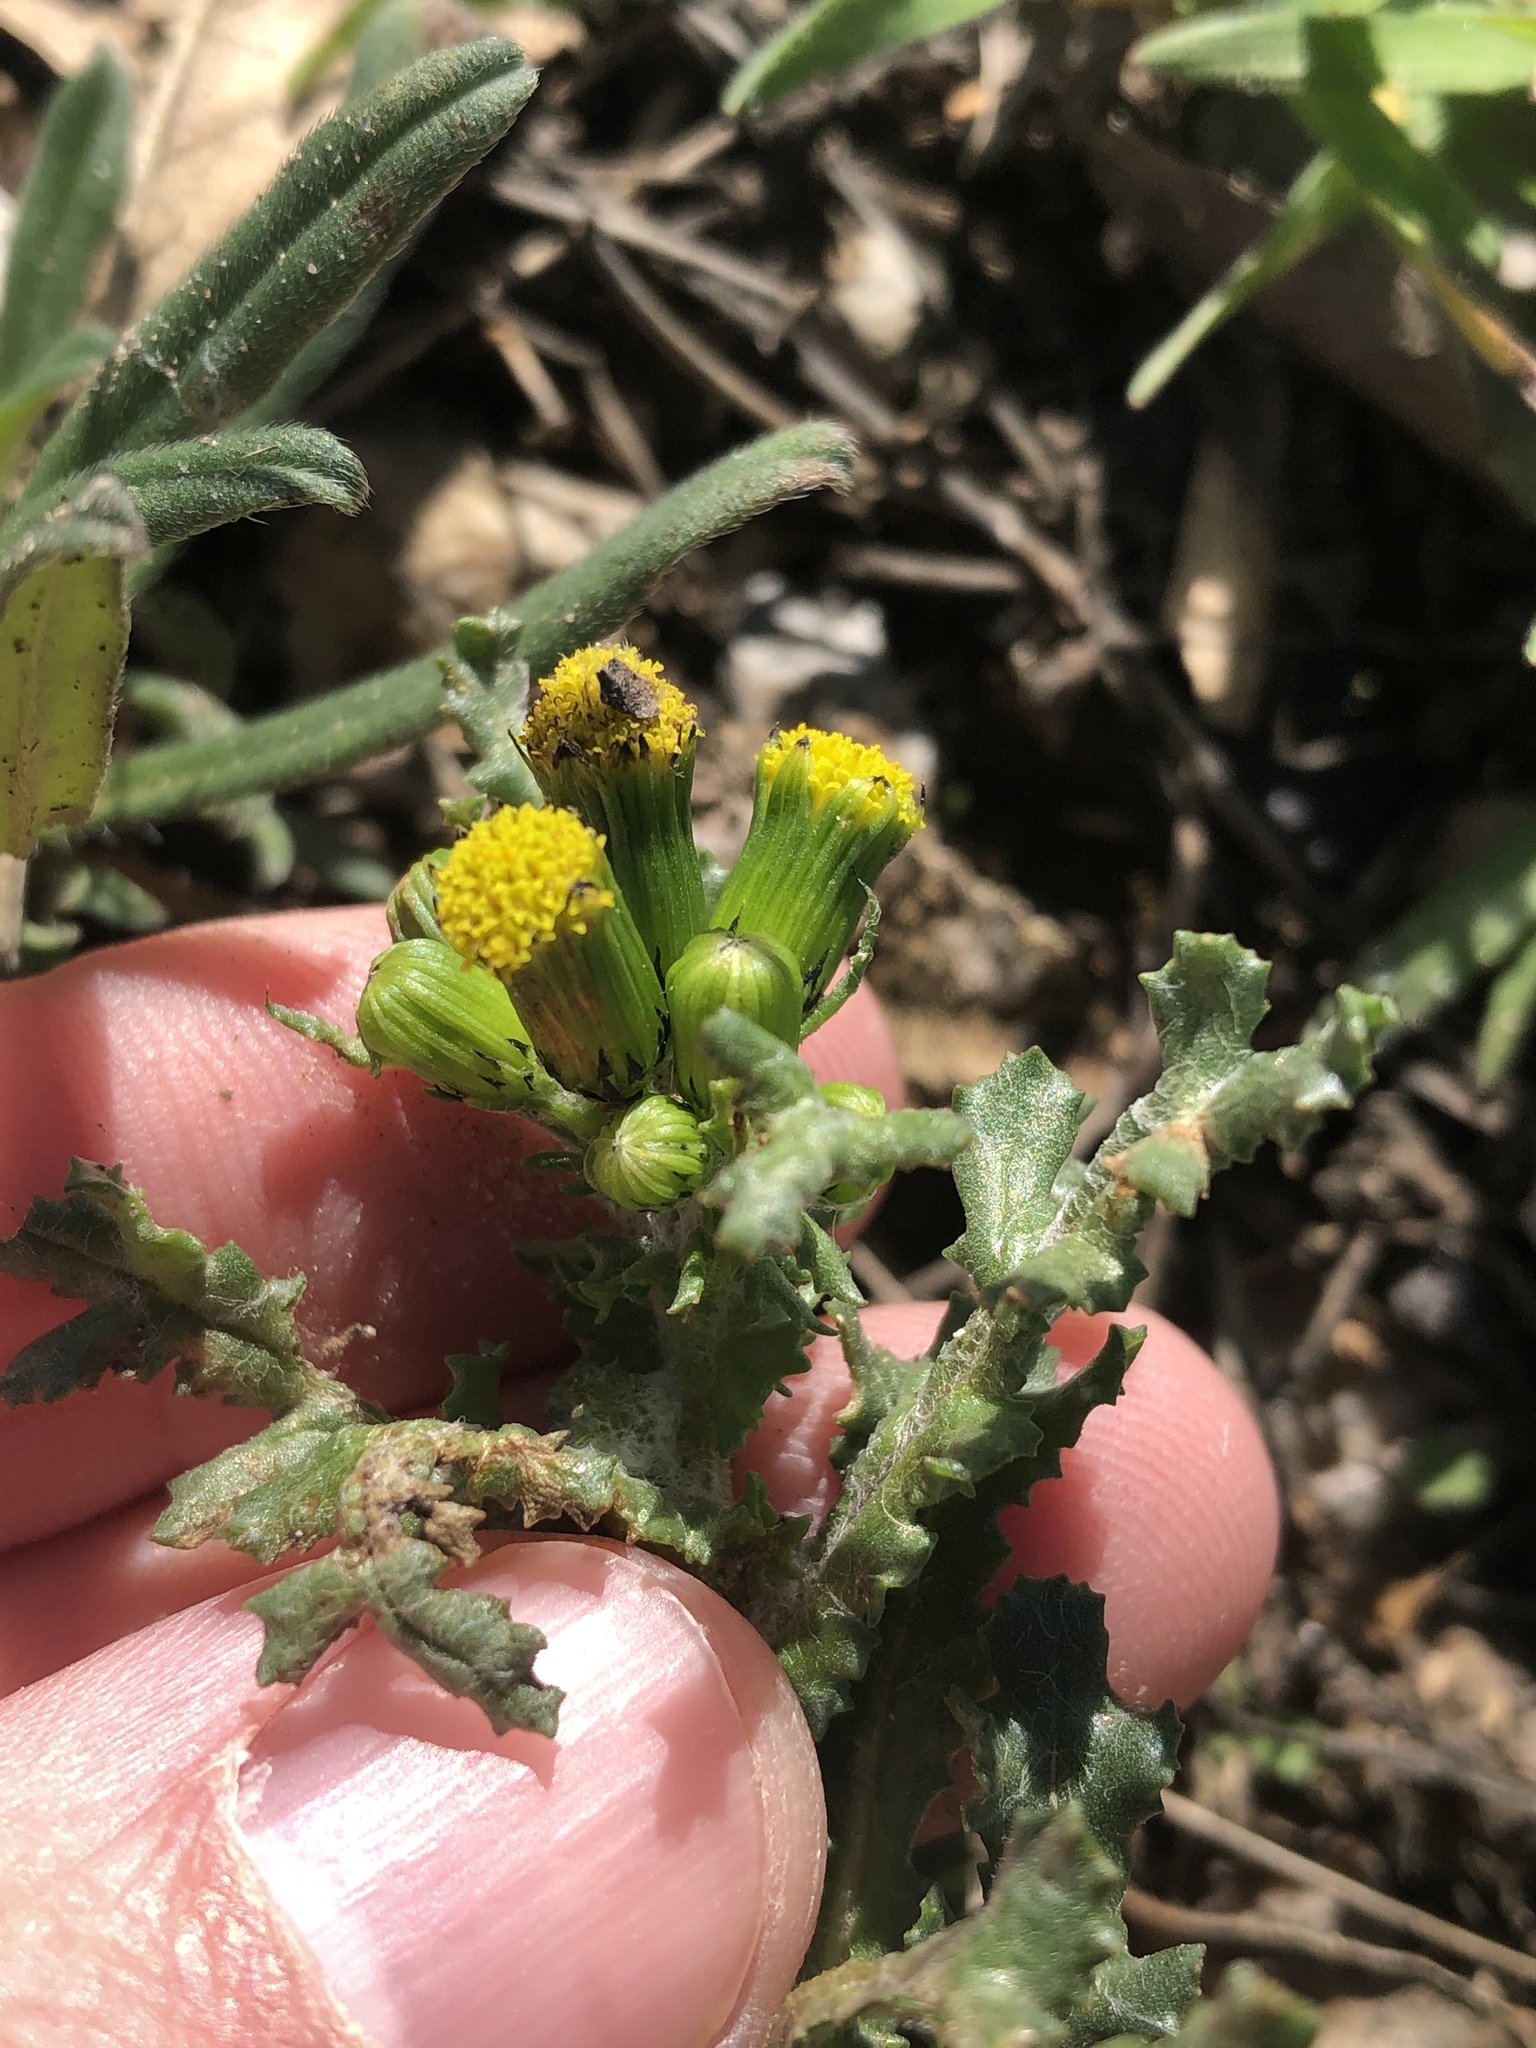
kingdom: Plantae
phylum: Tracheophyta
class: Magnoliopsida
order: Asterales
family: Asteraceae
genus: Senecio
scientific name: Senecio vulgaris
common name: Old-man-in-the-spring
